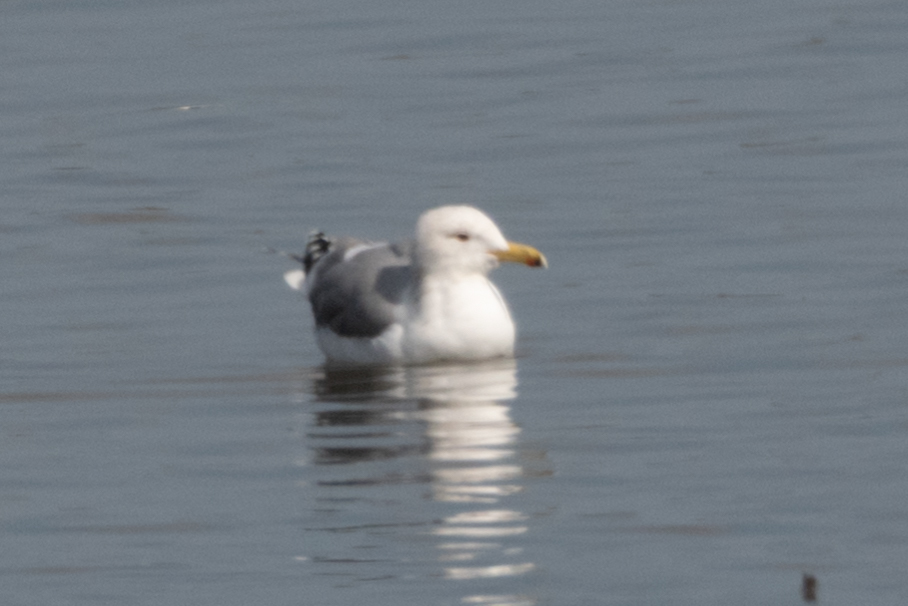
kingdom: Animalia
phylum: Chordata
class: Aves
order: Charadriiformes
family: Laridae
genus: Larus
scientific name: Larus californicus
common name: California gull
